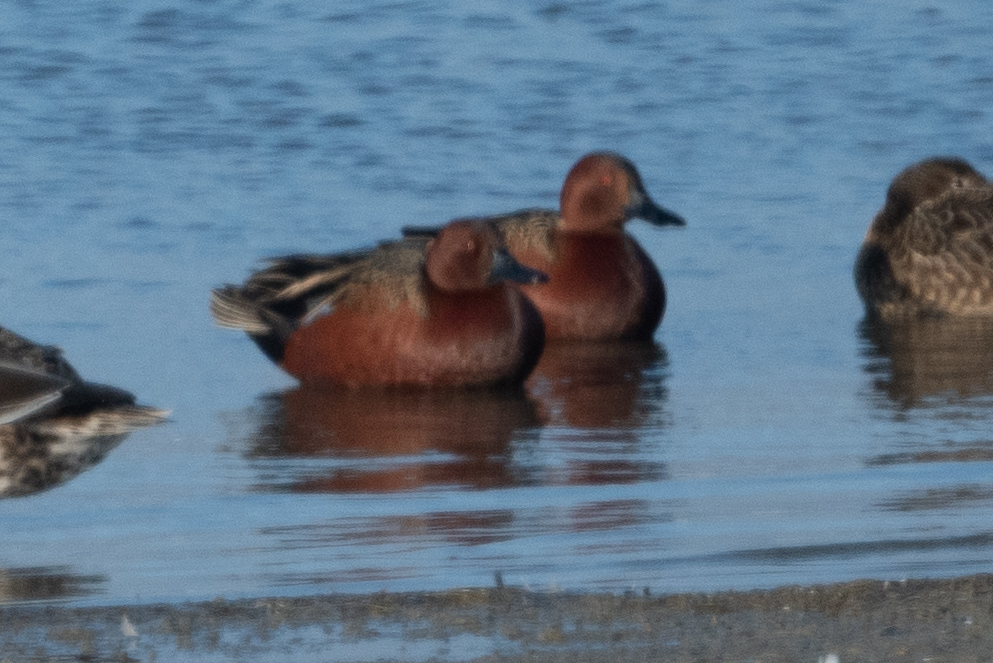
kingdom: Animalia
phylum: Chordata
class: Aves
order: Anseriformes
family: Anatidae
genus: Spatula
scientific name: Spatula cyanoptera
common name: Cinnamon teal
